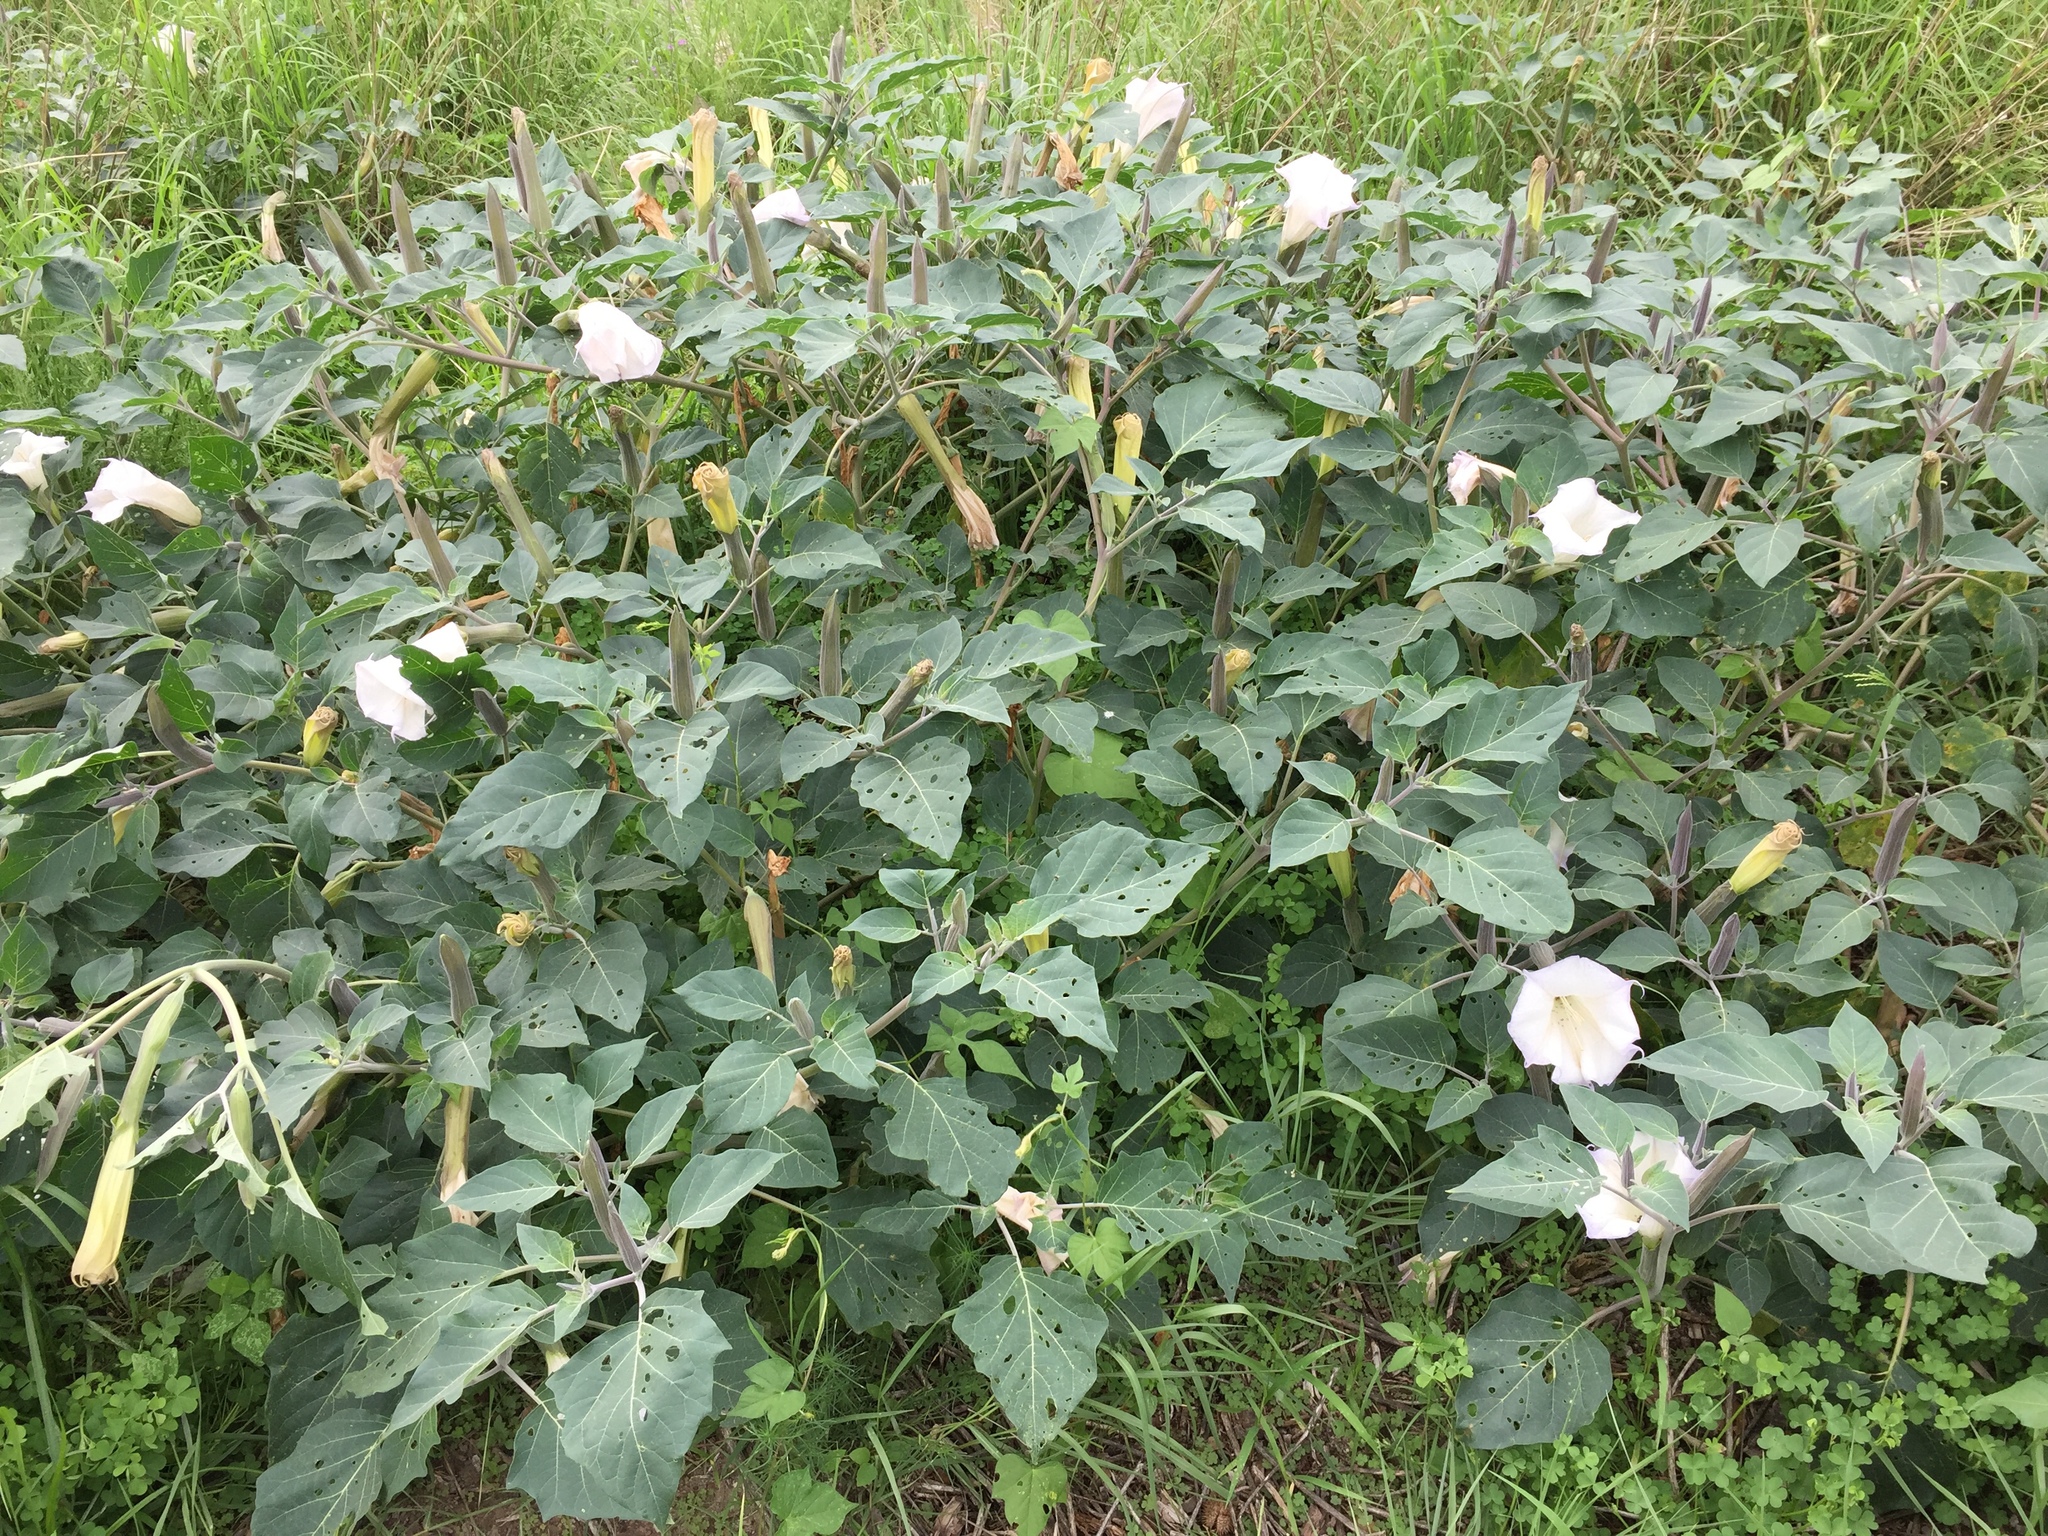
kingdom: Plantae
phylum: Tracheophyta
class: Magnoliopsida
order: Solanales
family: Solanaceae
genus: Datura
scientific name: Datura wrightii
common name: Sacred thorn-apple
